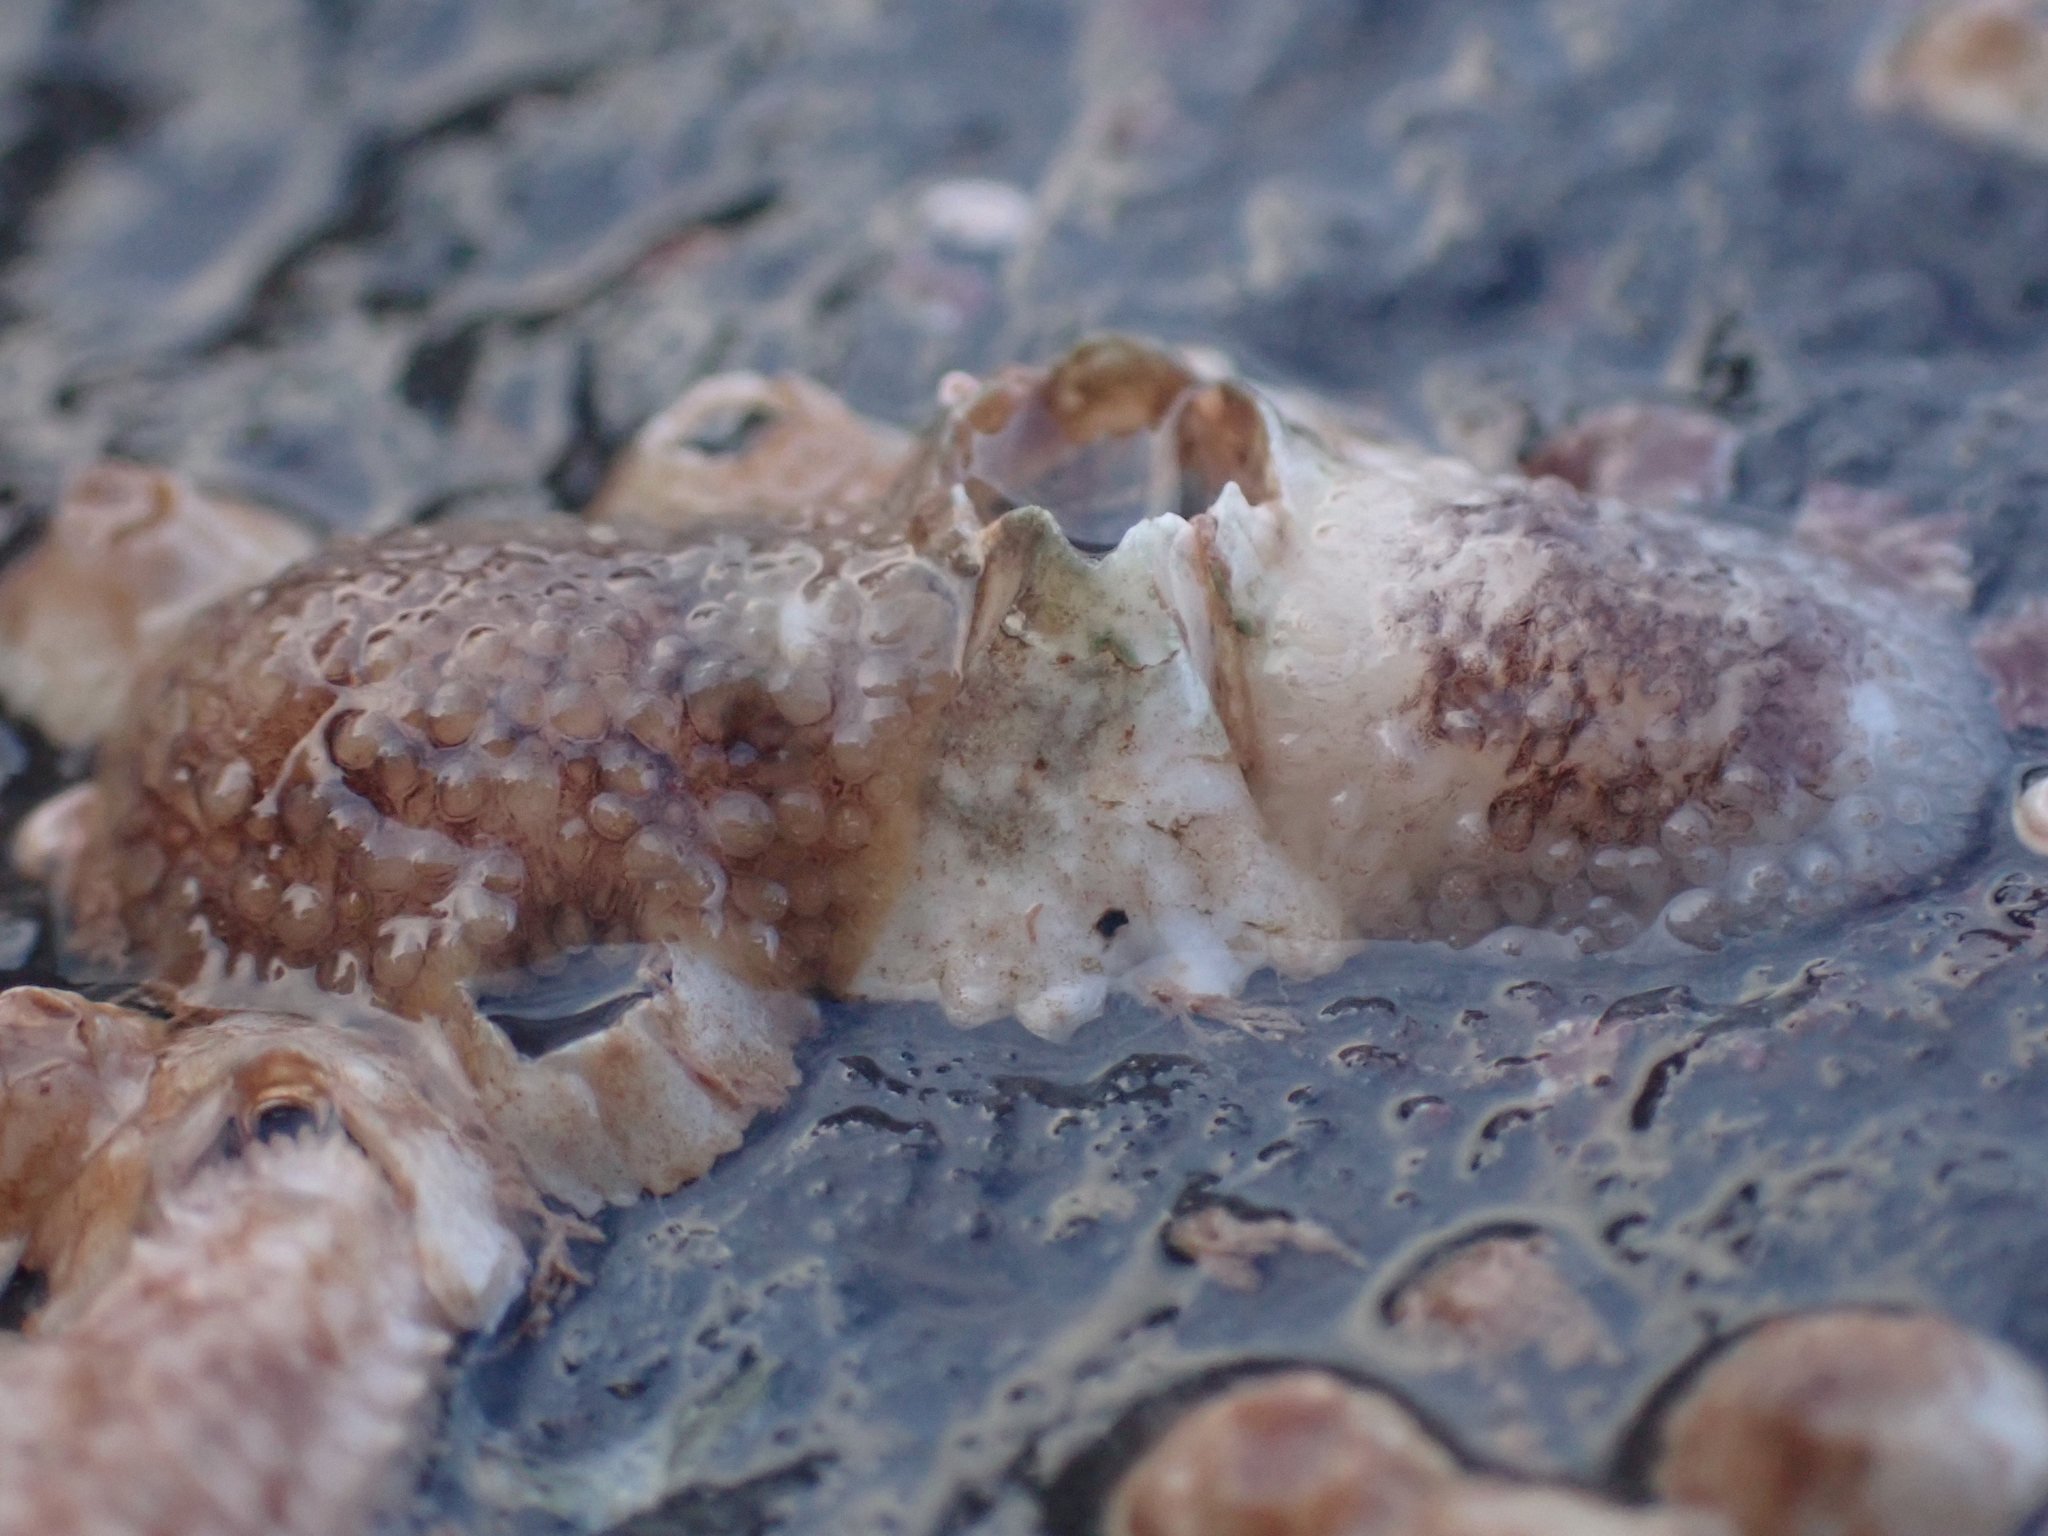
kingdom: Animalia
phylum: Mollusca
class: Gastropoda
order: Nudibranchia
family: Onchidorididae
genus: Onchidoris
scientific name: Onchidoris bilamellata
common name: Barnacle-eating onchidoris
